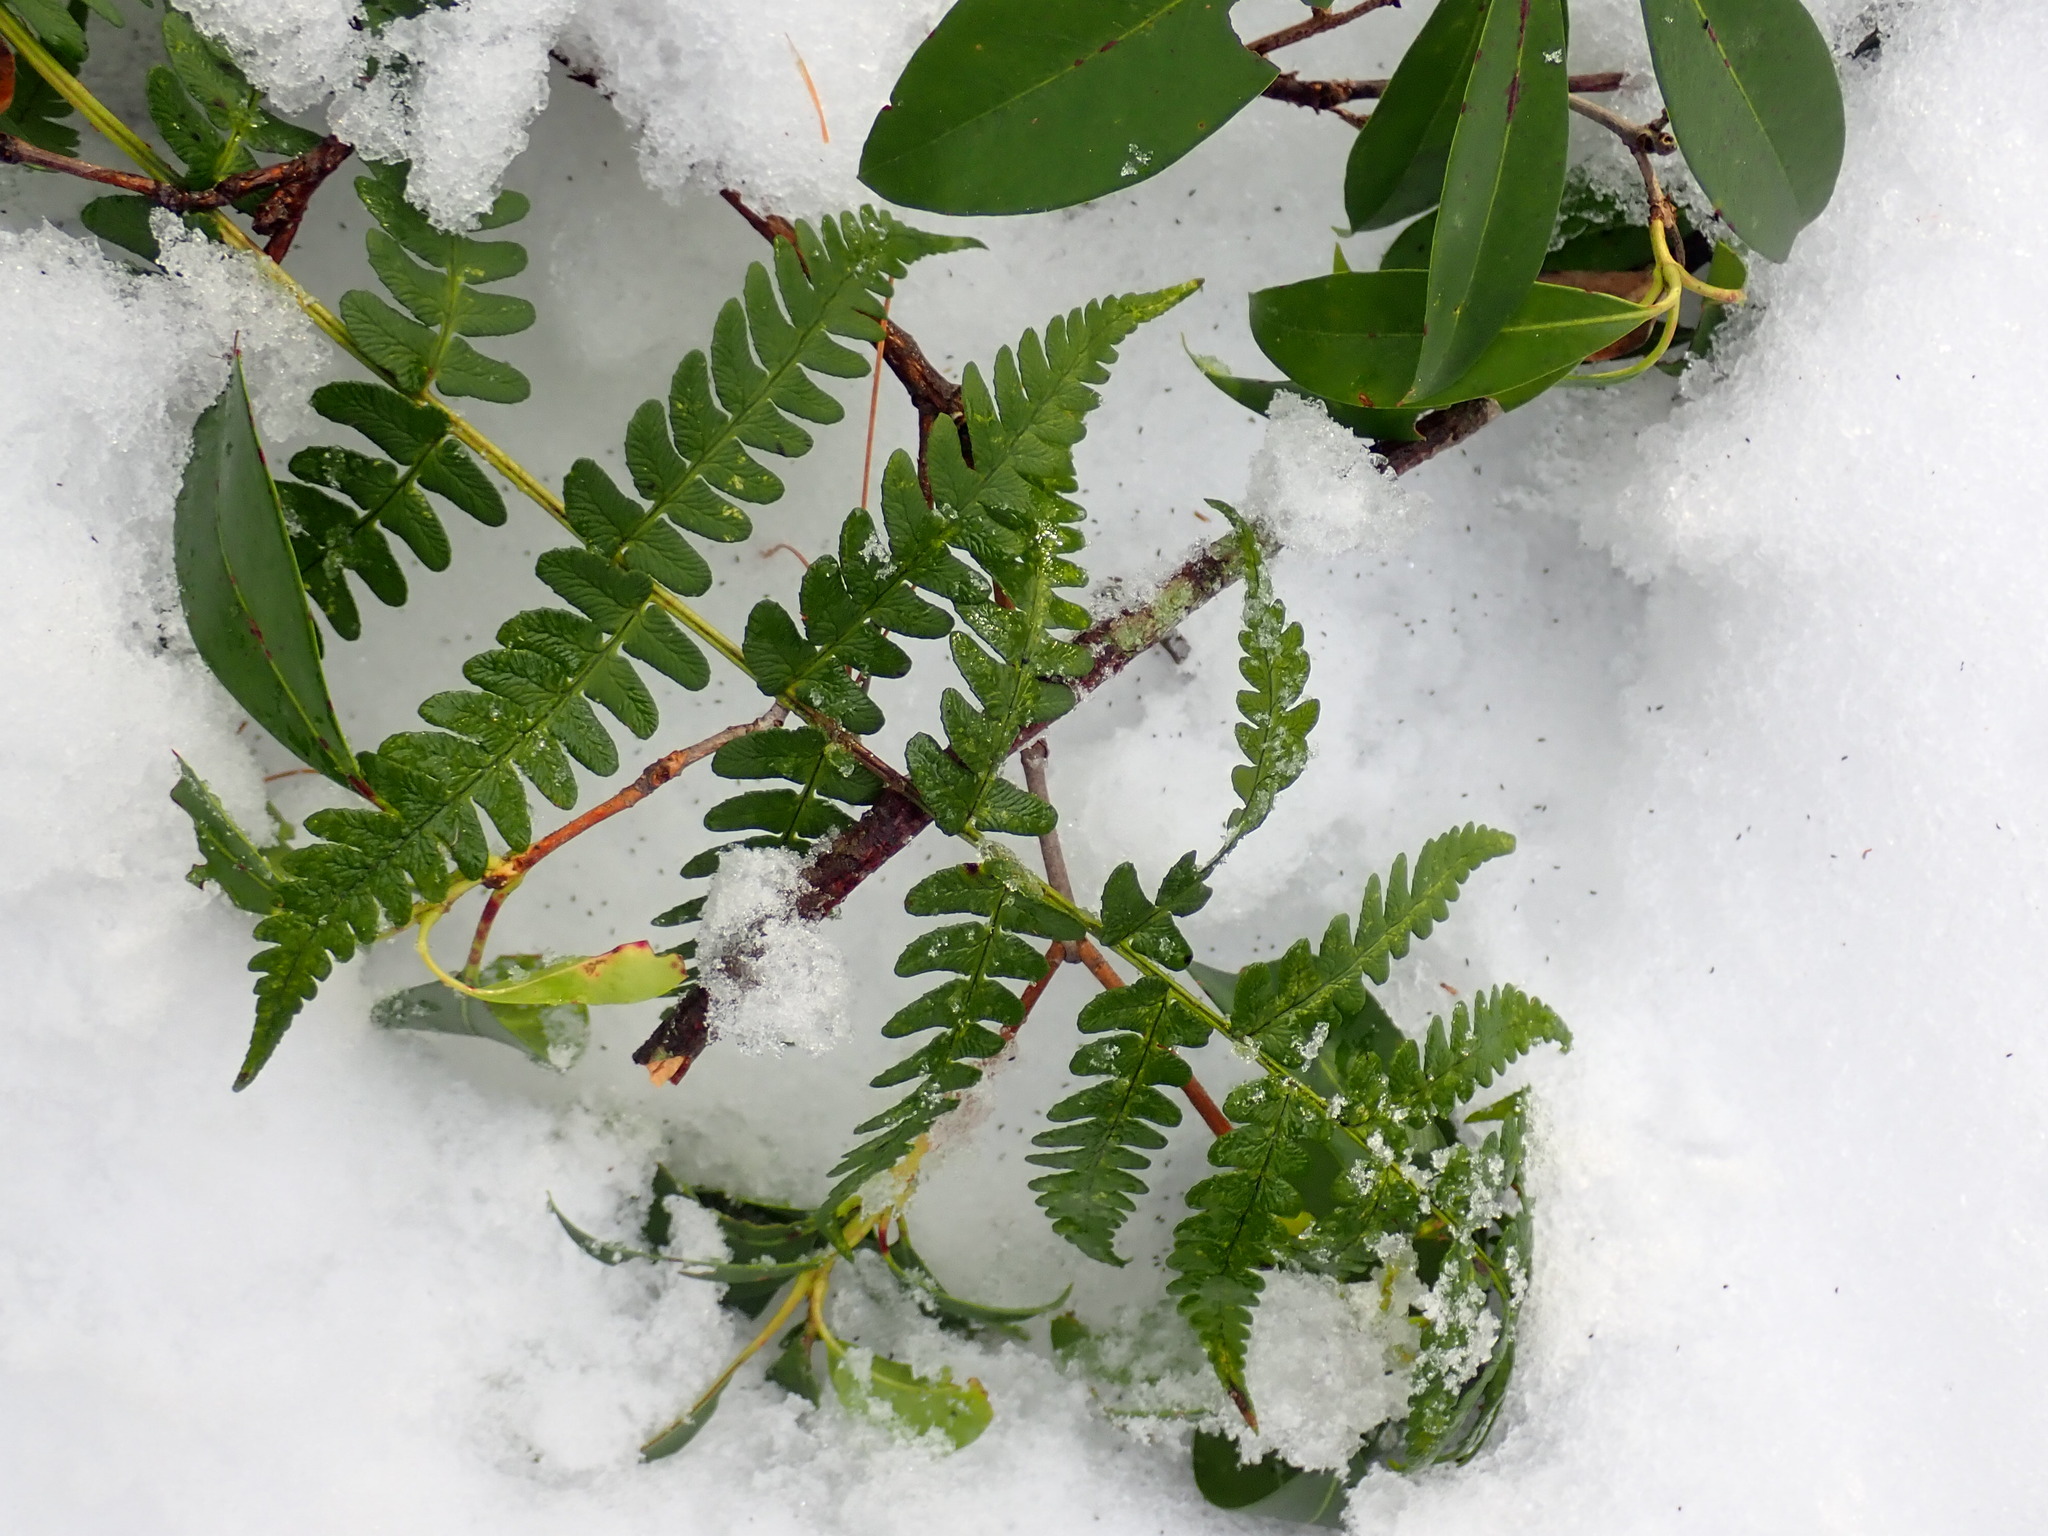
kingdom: Plantae
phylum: Tracheophyta
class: Polypodiopsida
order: Polypodiales
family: Dryopteridaceae
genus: Dryopteris
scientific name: Dryopteris marginalis
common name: Marginal wood fern
